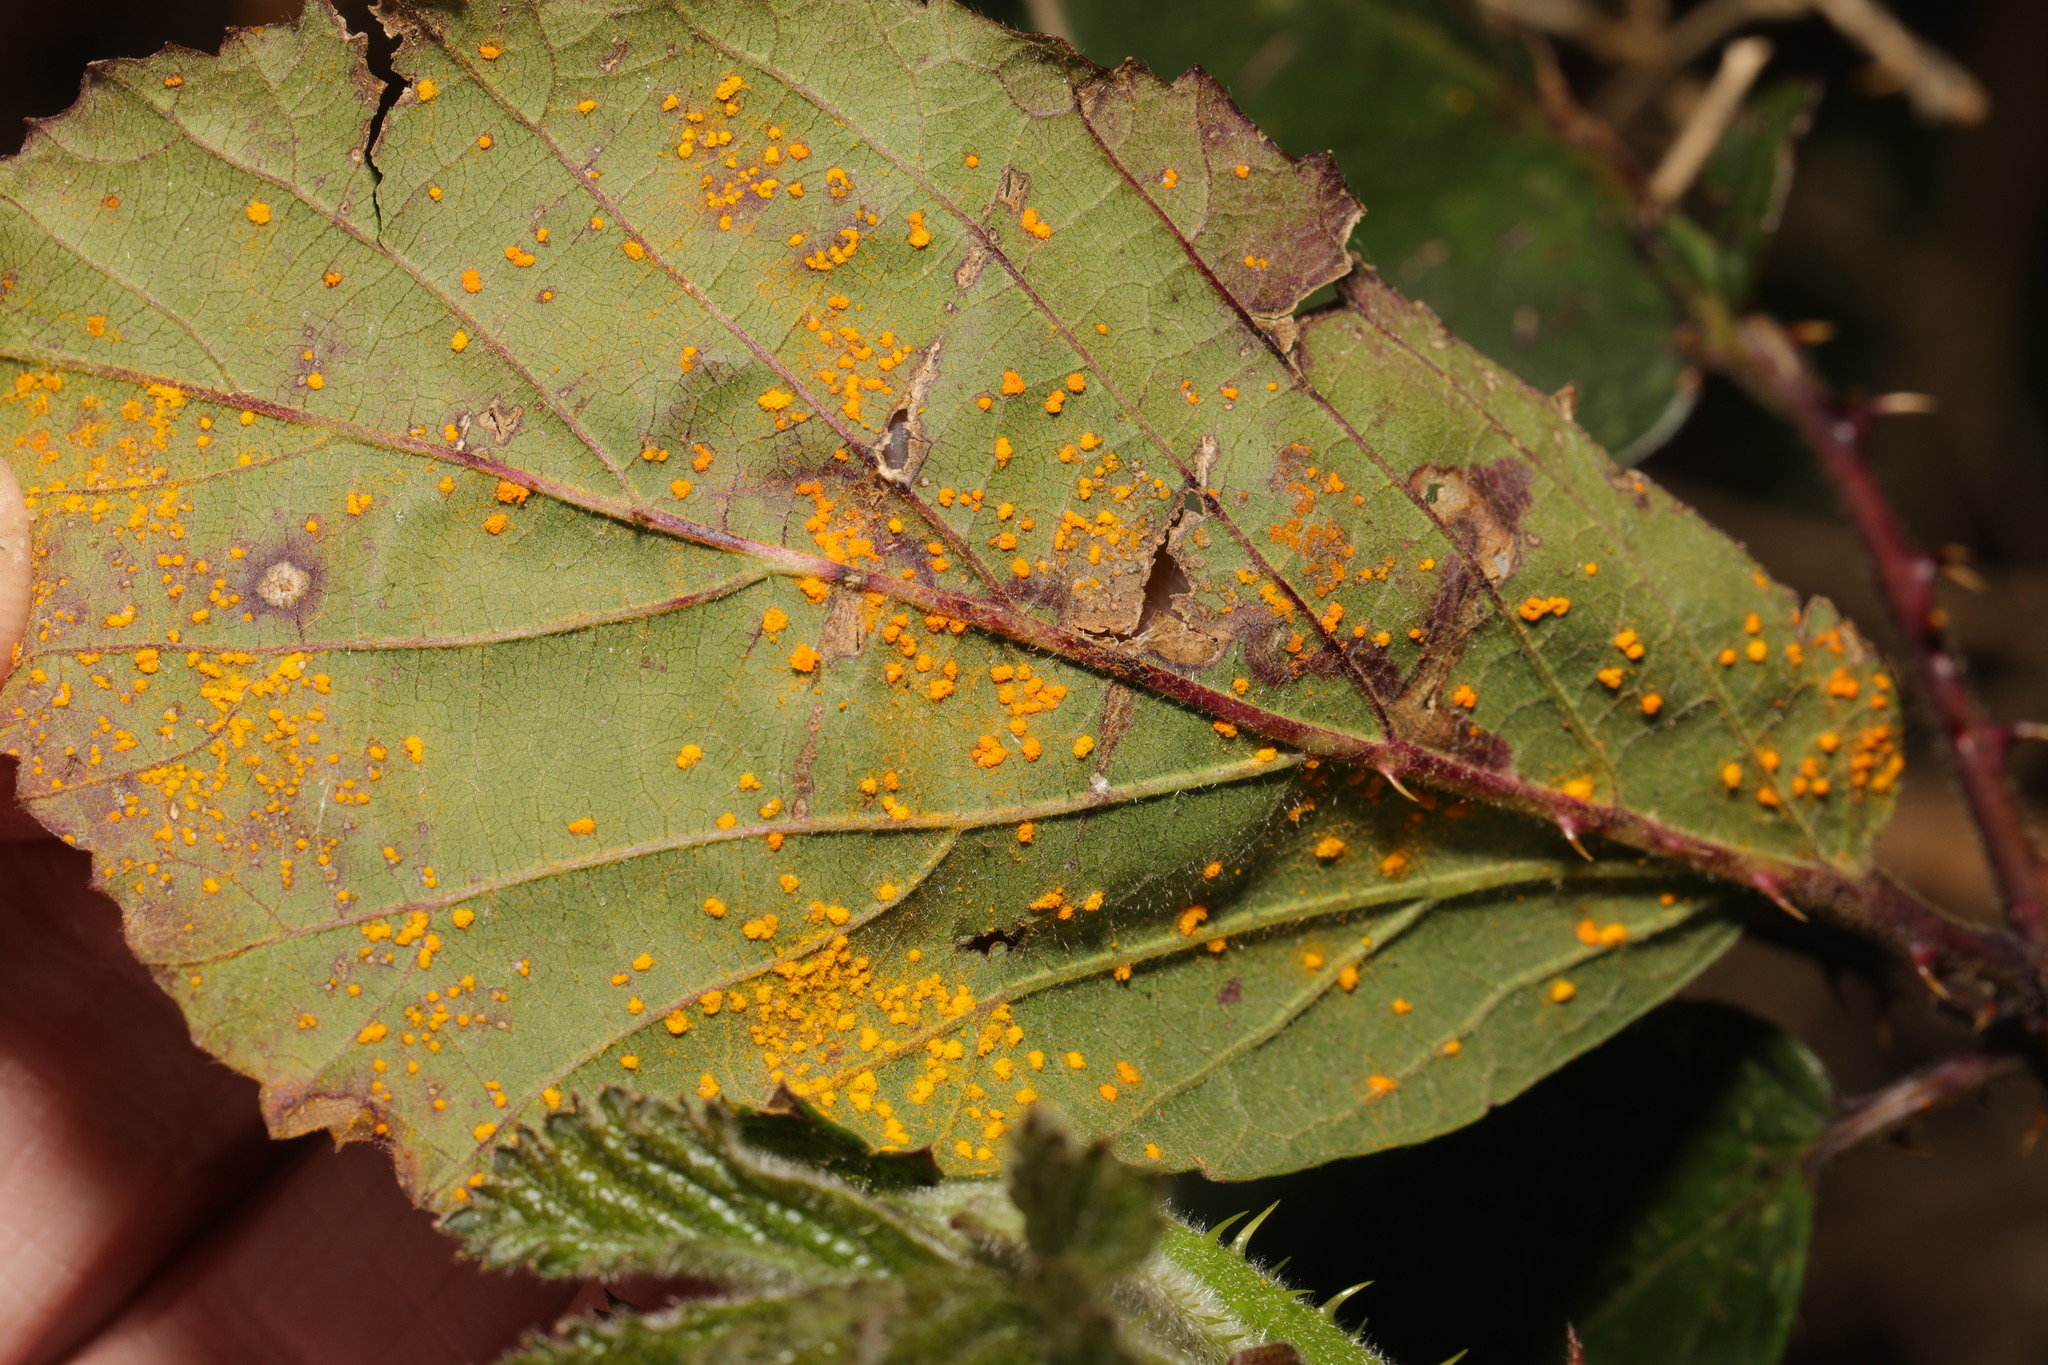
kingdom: Fungi
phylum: Basidiomycota
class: Pucciniomycetes
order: Pucciniales
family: Phragmidiaceae
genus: Phragmidium
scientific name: Phragmidium violaceum
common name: Violet bramble rust
